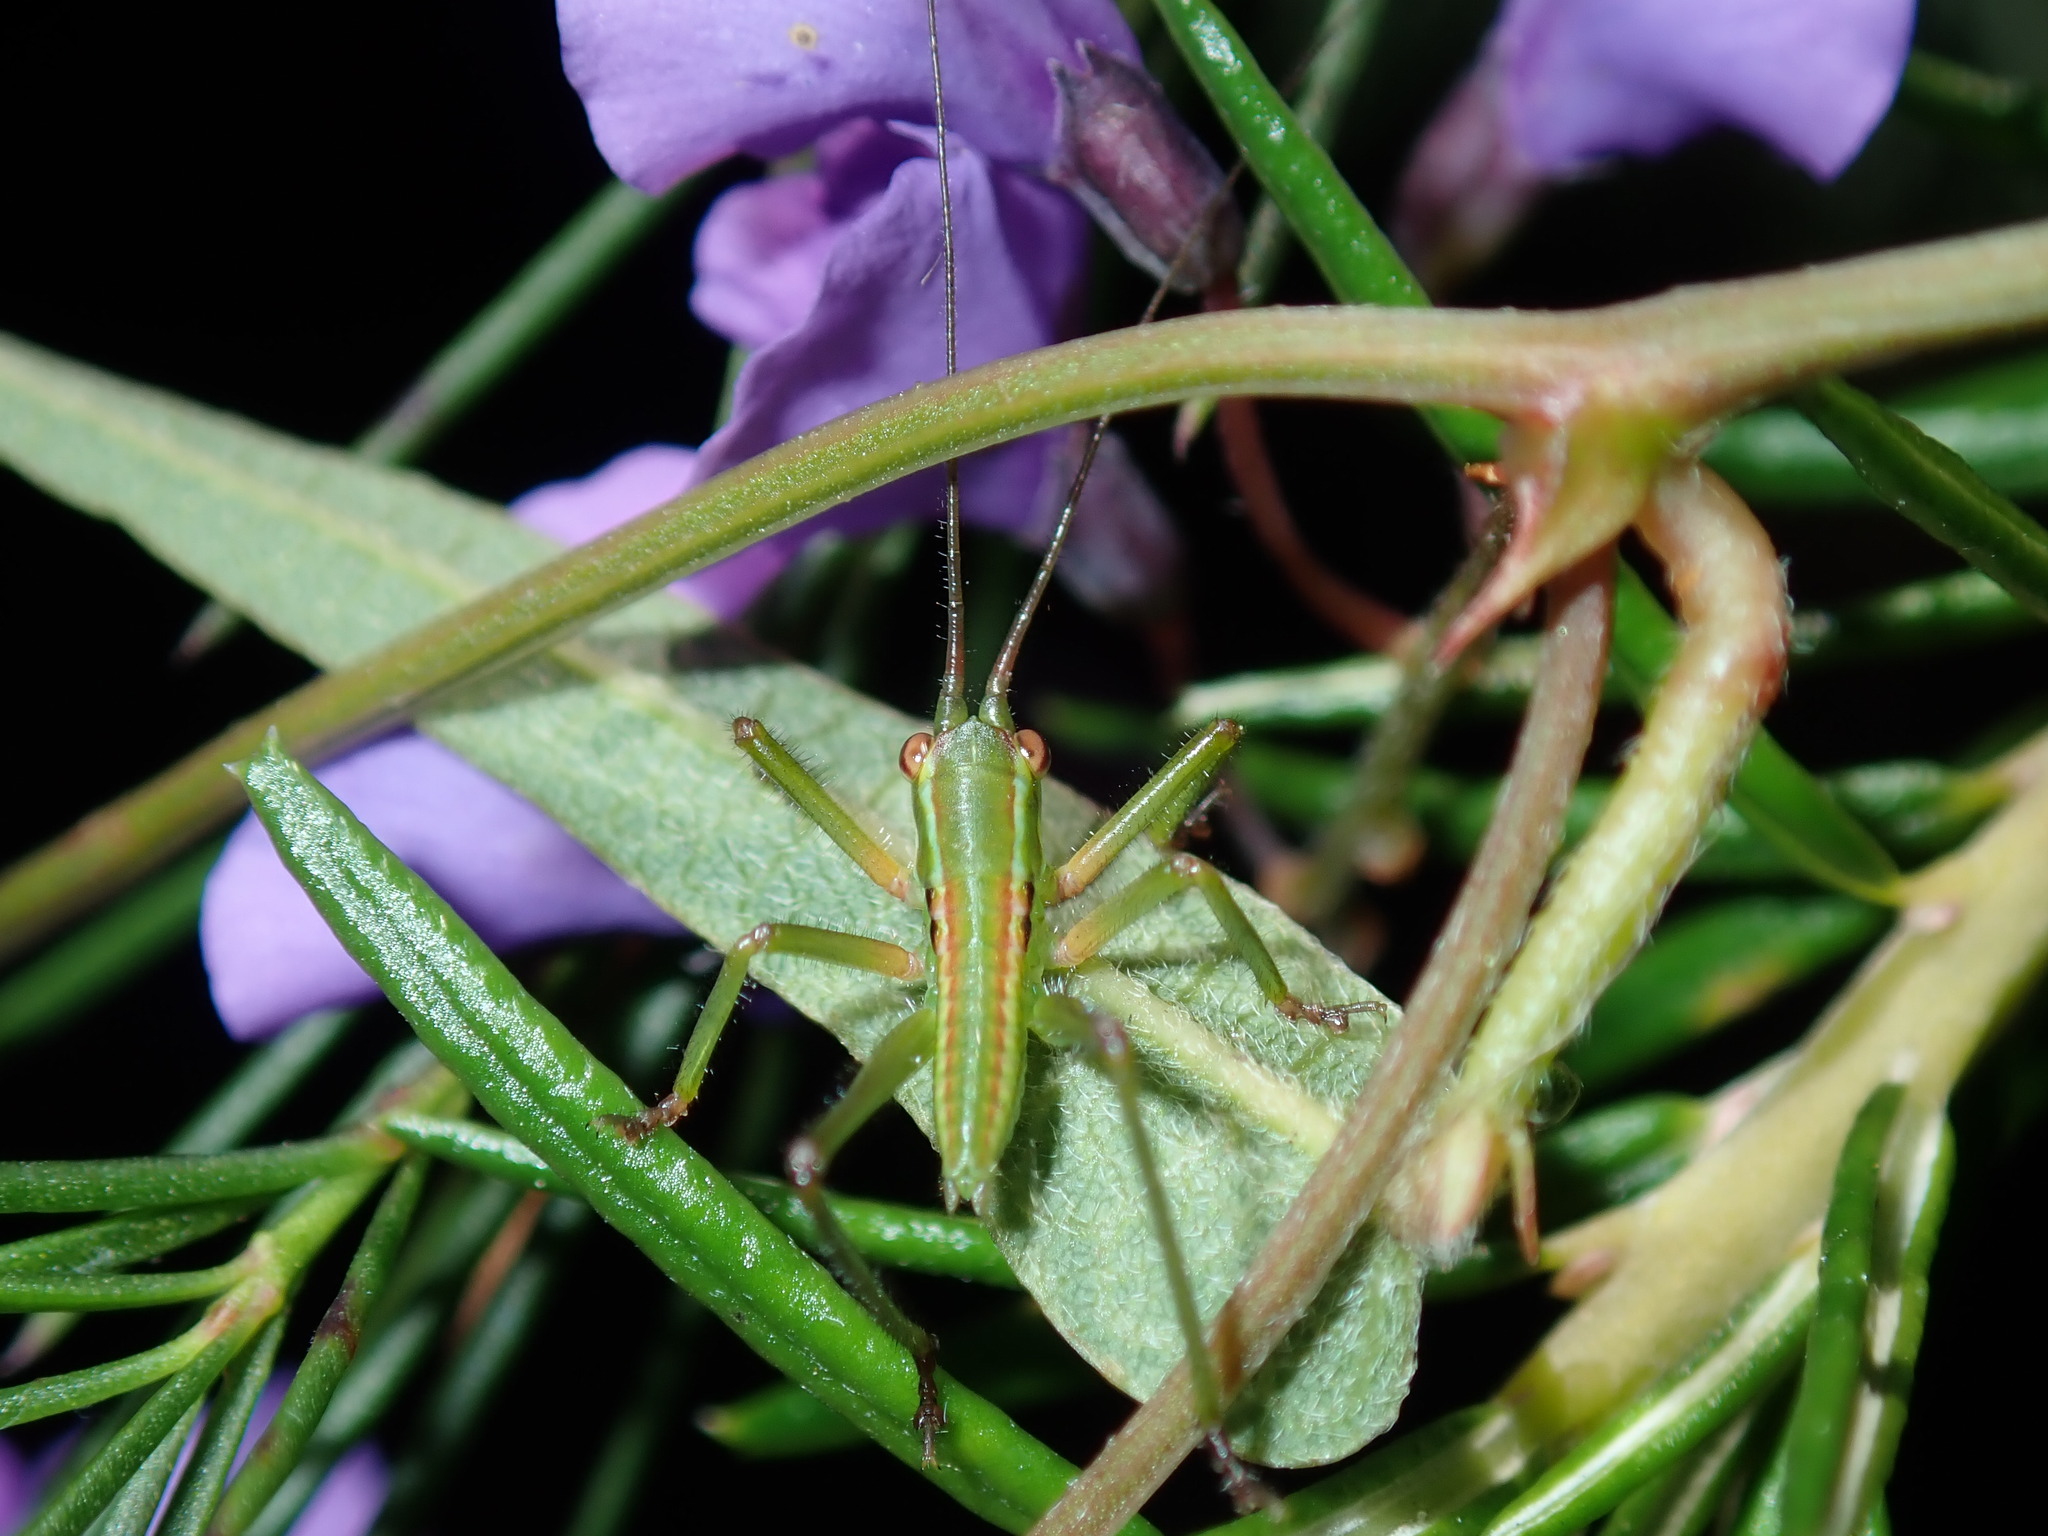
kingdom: Animalia
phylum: Arthropoda
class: Insecta
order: Orthoptera
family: Tettigoniidae
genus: Terpandrus
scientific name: Terpandrus endota
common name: Great green gumleaf katydid
